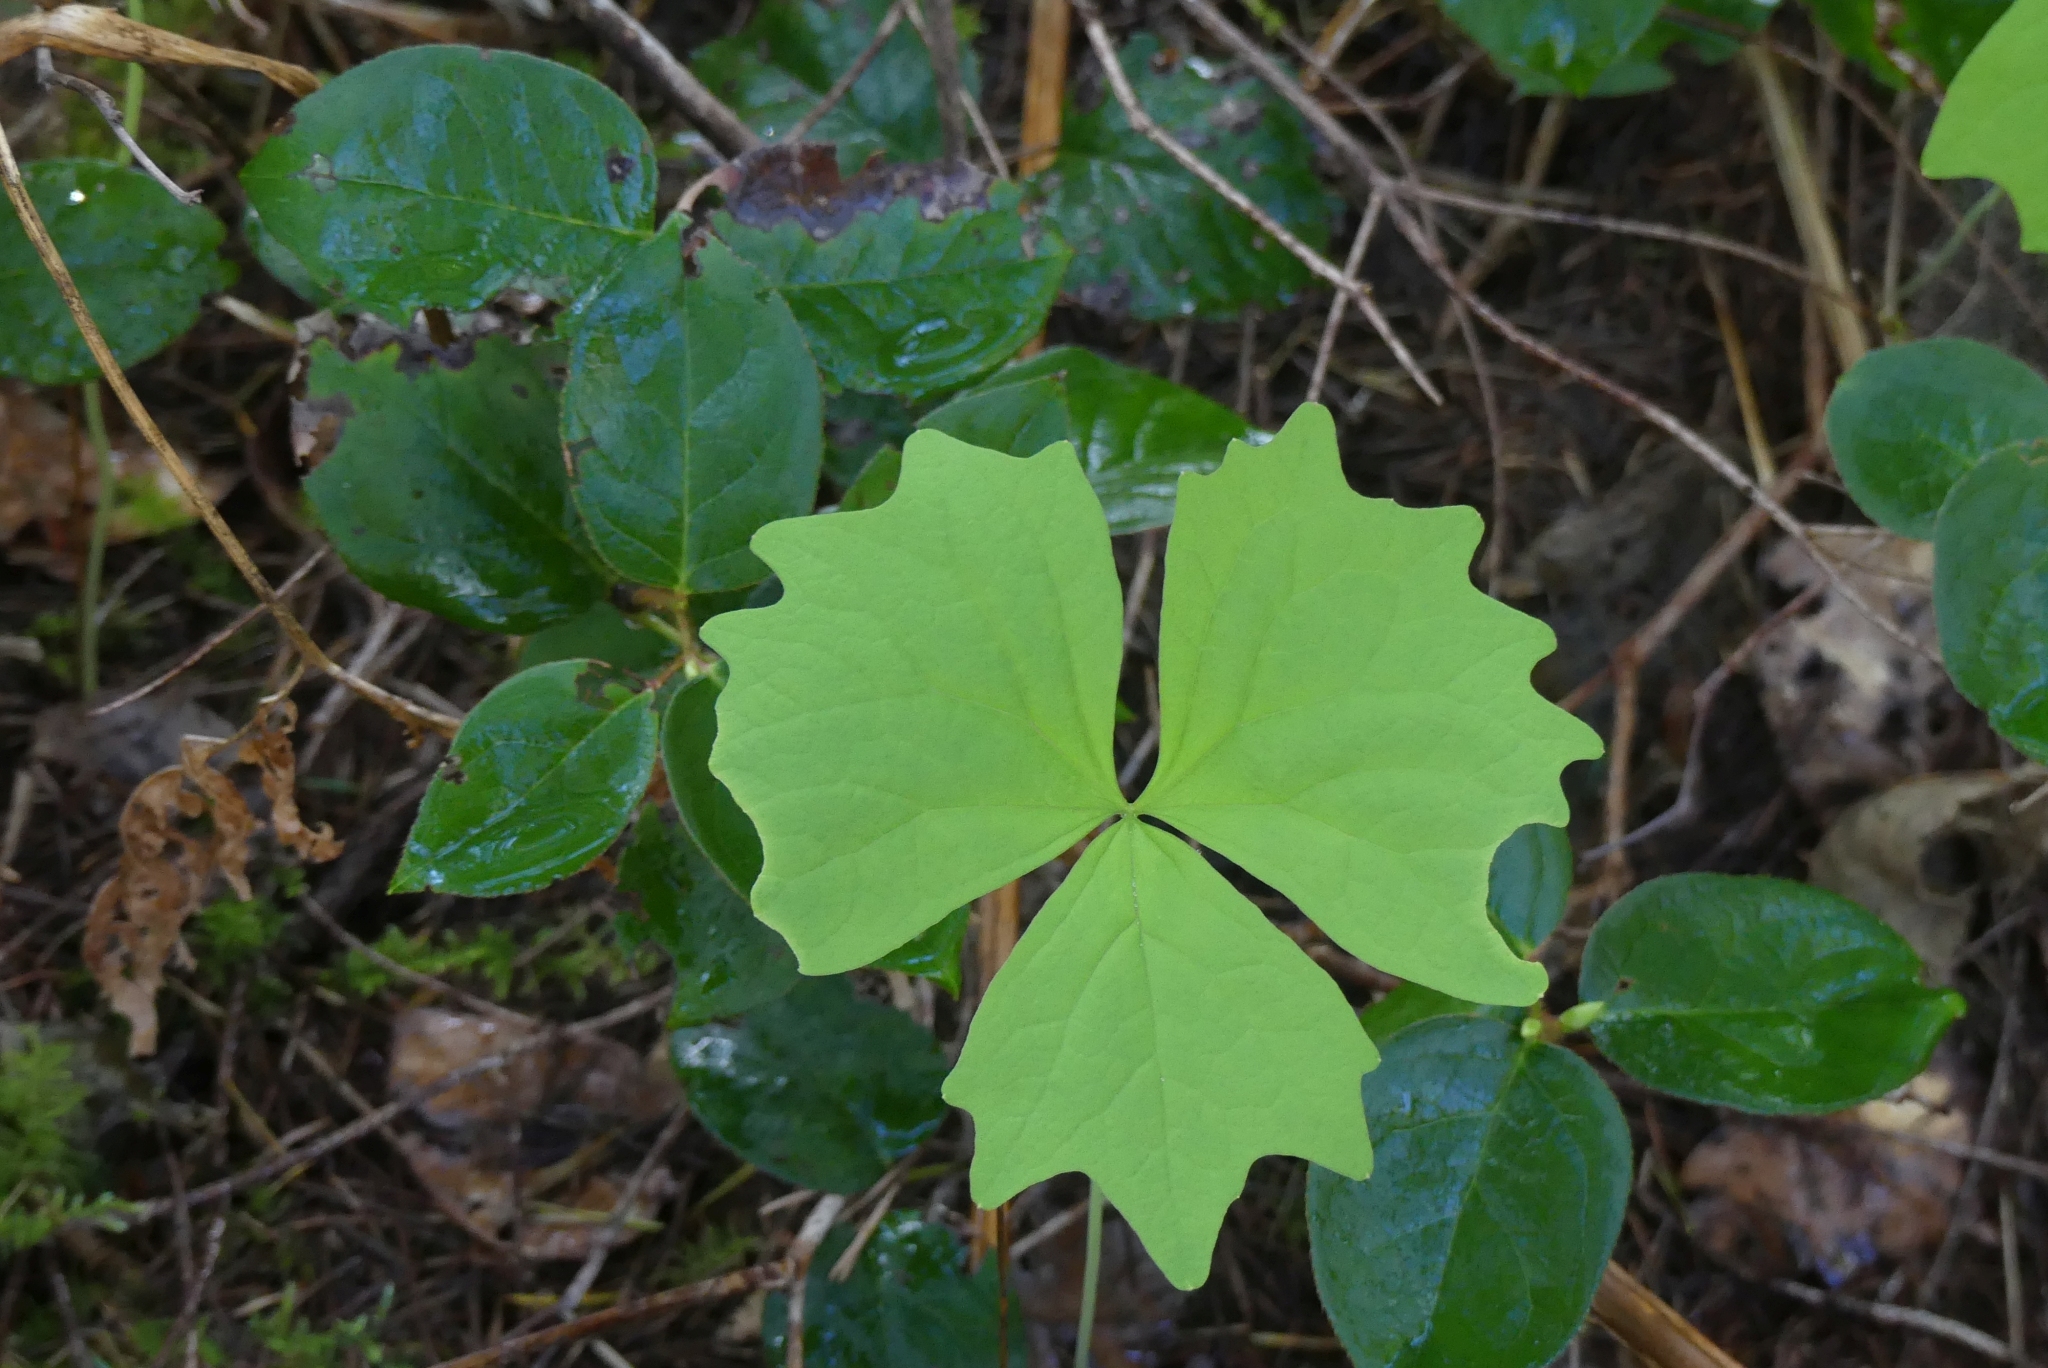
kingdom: Plantae
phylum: Tracheophyta
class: Magnoliopsida
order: Ranunculales
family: Berberidaceae
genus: Achlys
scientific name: Achlys triphylla
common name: Vanilla-leaf
